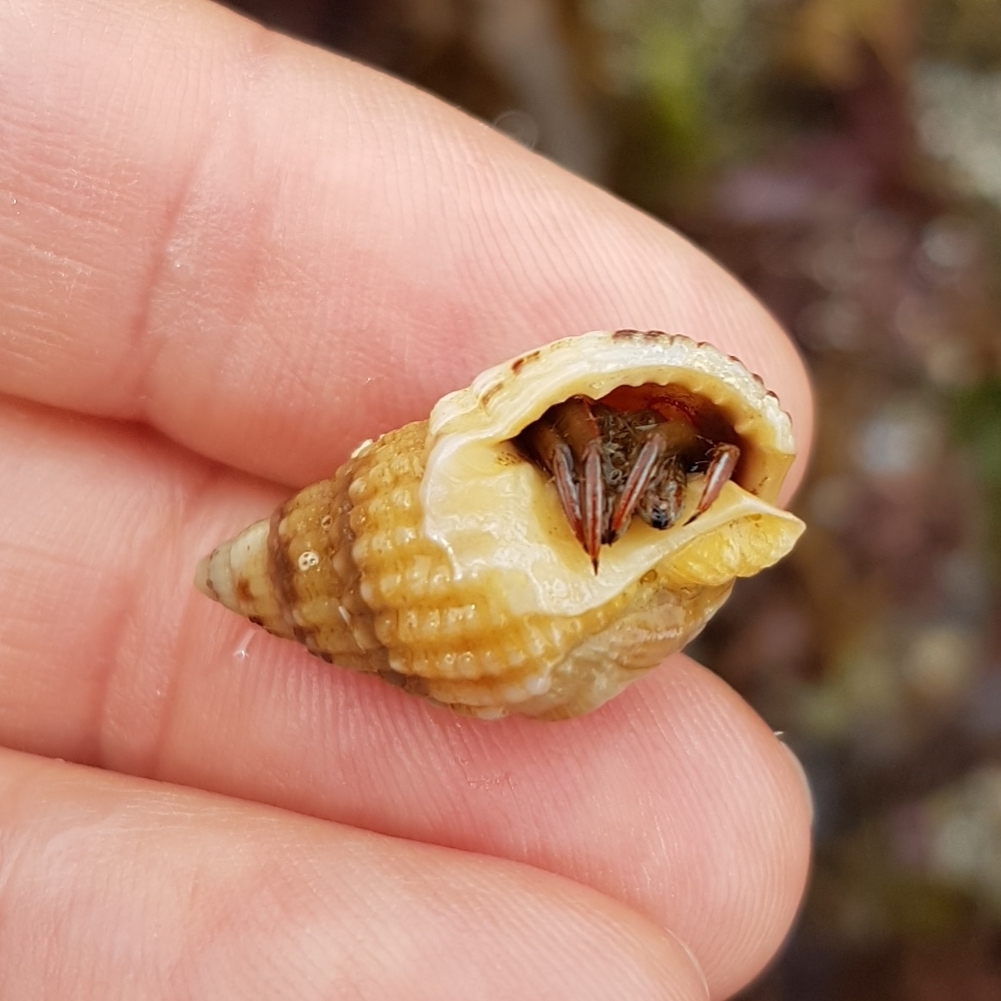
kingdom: Animalia
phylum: Arthropoda
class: Malacostraca
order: Decapoda
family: Diogenidae
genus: Clibanarius
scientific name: Clibanarius erythropus
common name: Hermit crab
